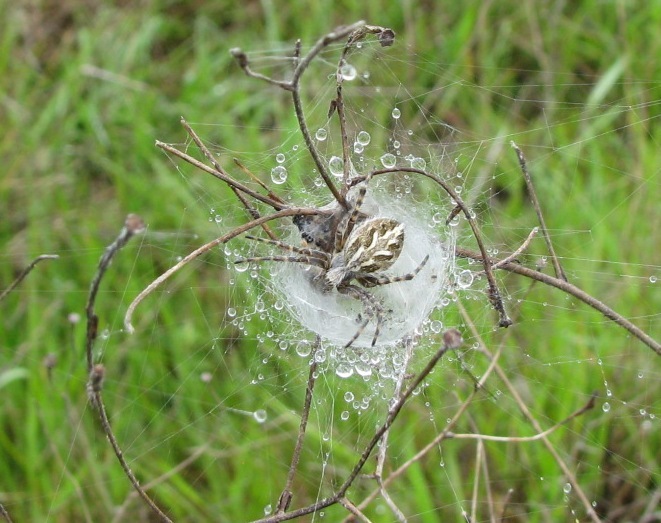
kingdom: Animalia
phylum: Arthropoda
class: Arachnida
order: Araneae
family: Araneidae
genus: Aculepeira
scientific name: Aculepeira packardi
